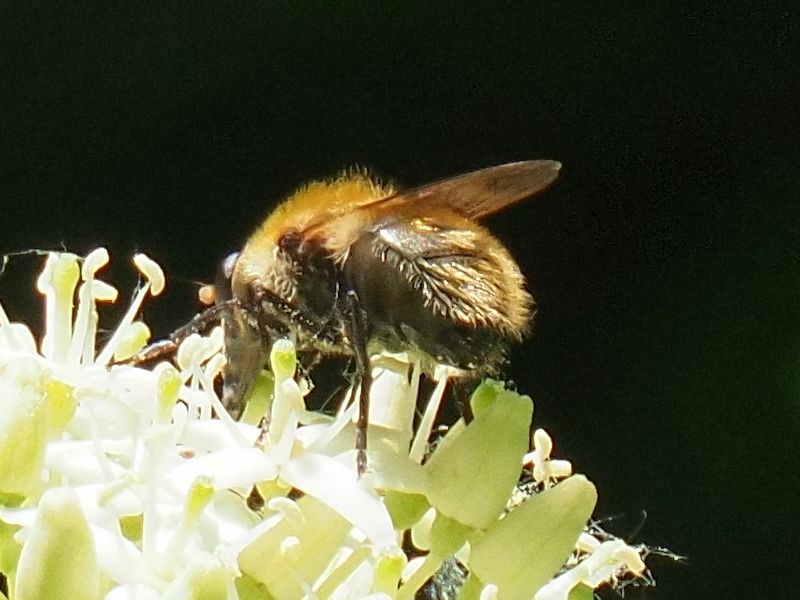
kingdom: Animalia
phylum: Arthropoda
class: Insecta
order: Diptera
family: Syrphidae
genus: Criorhina
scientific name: Criorhina berberina
